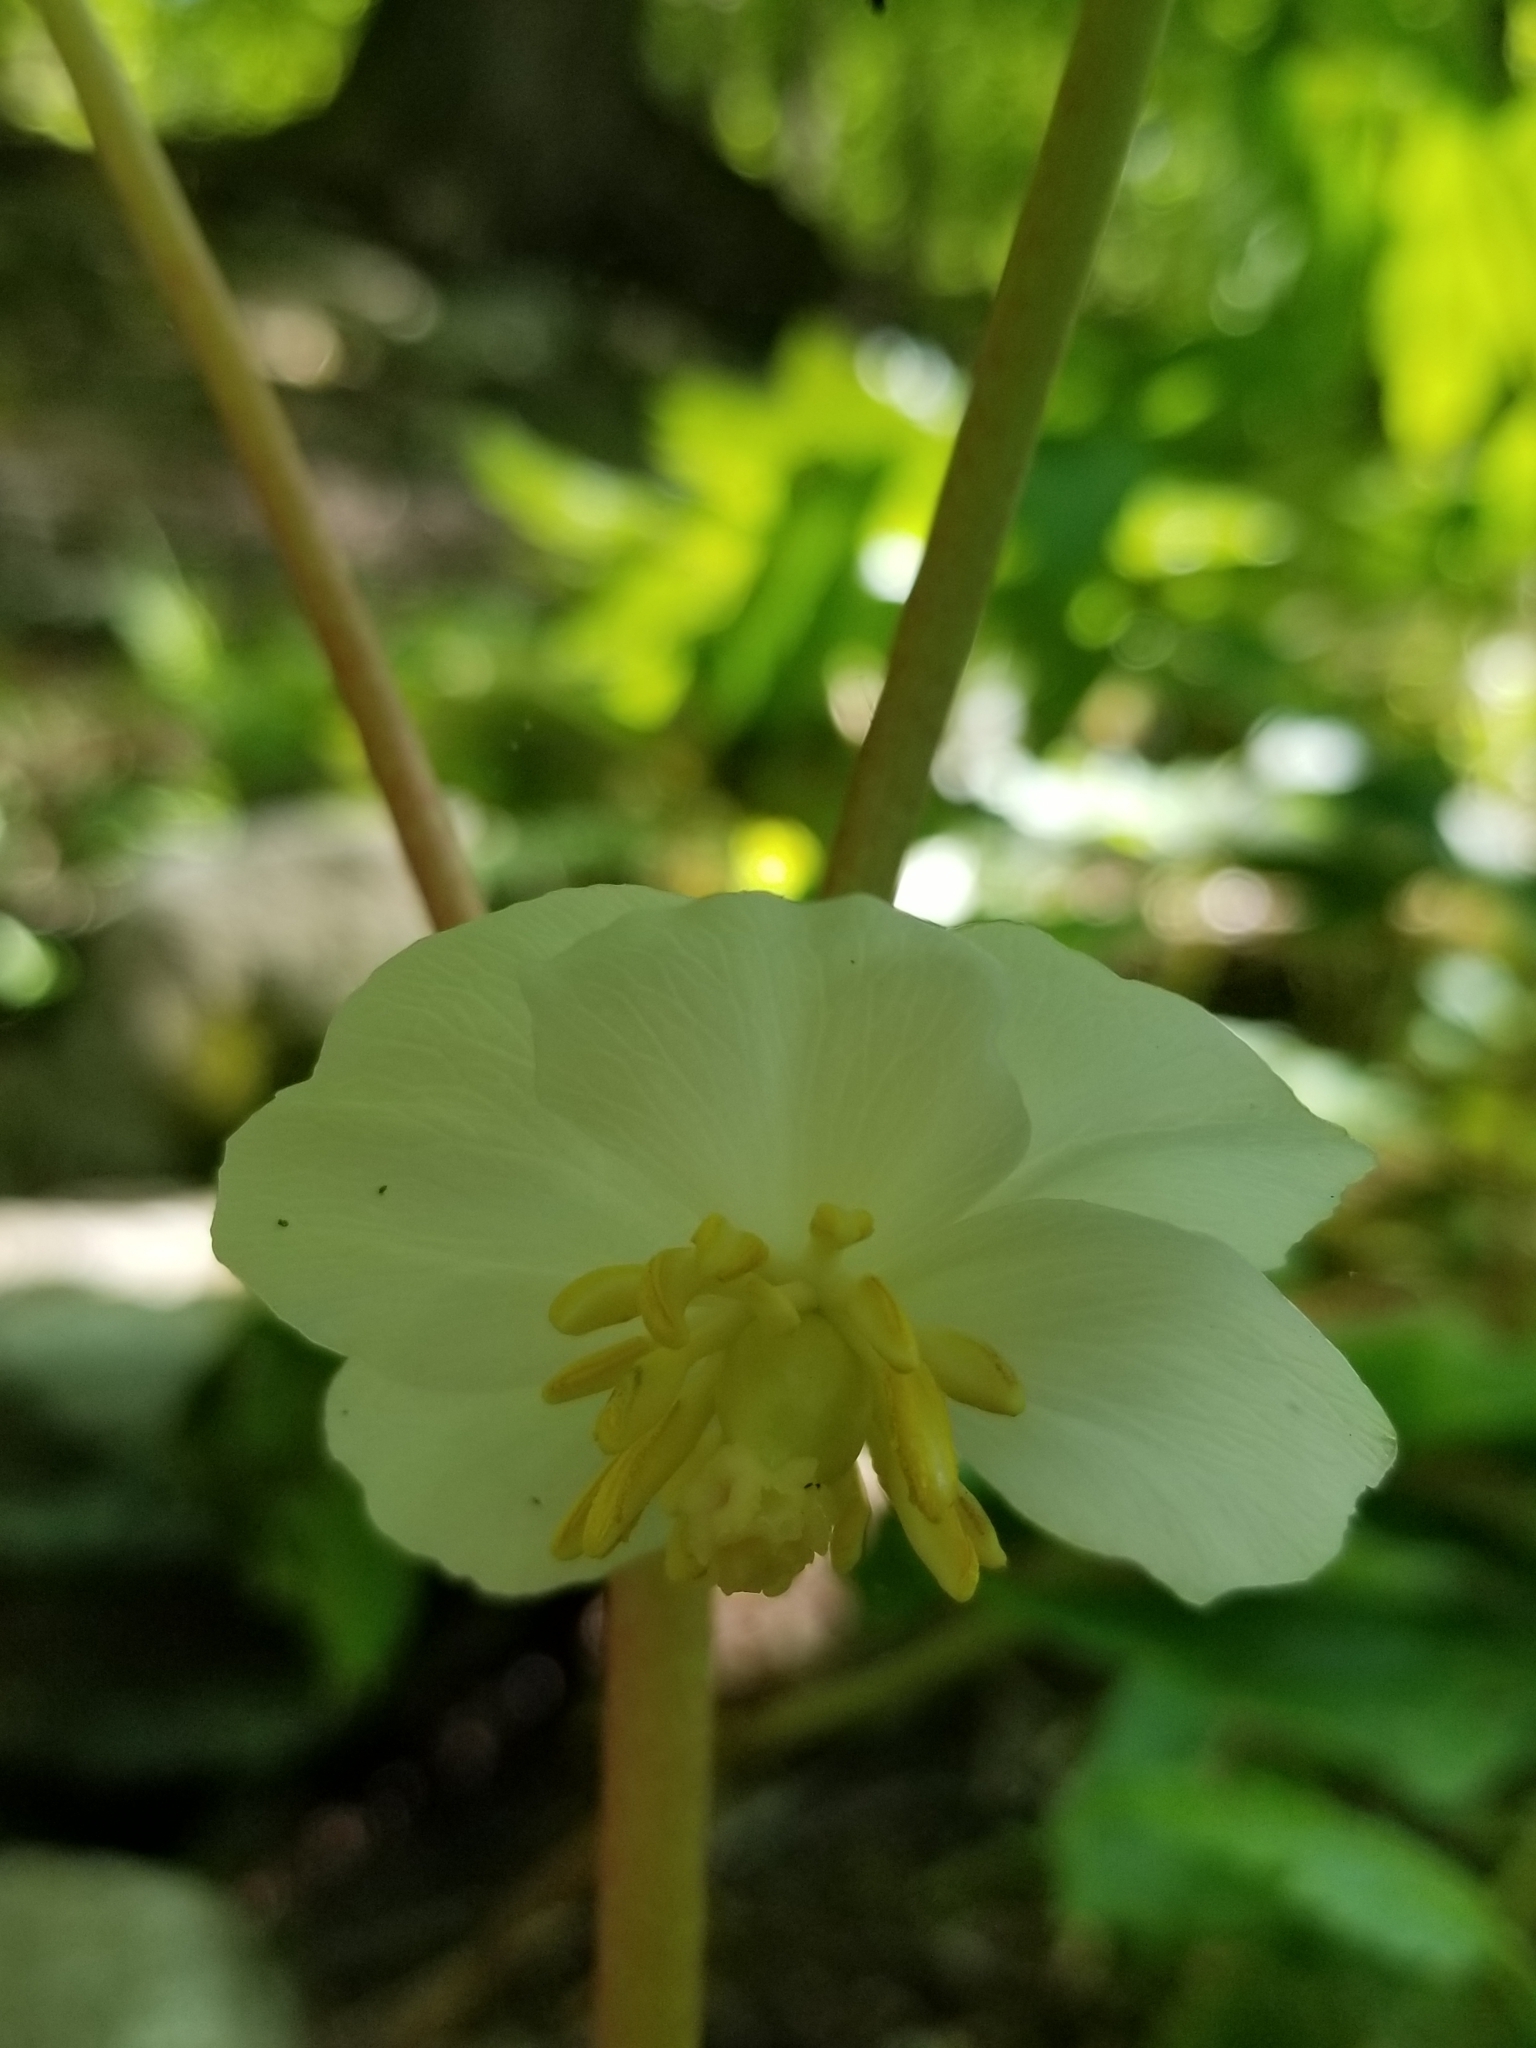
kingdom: Plantae
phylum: Tracheophyta
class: Magnoliopsida
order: Ranunculales
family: Berberidaceae
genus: Podophyllum
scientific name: Podophyllum peltatum
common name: Wild mandrake
